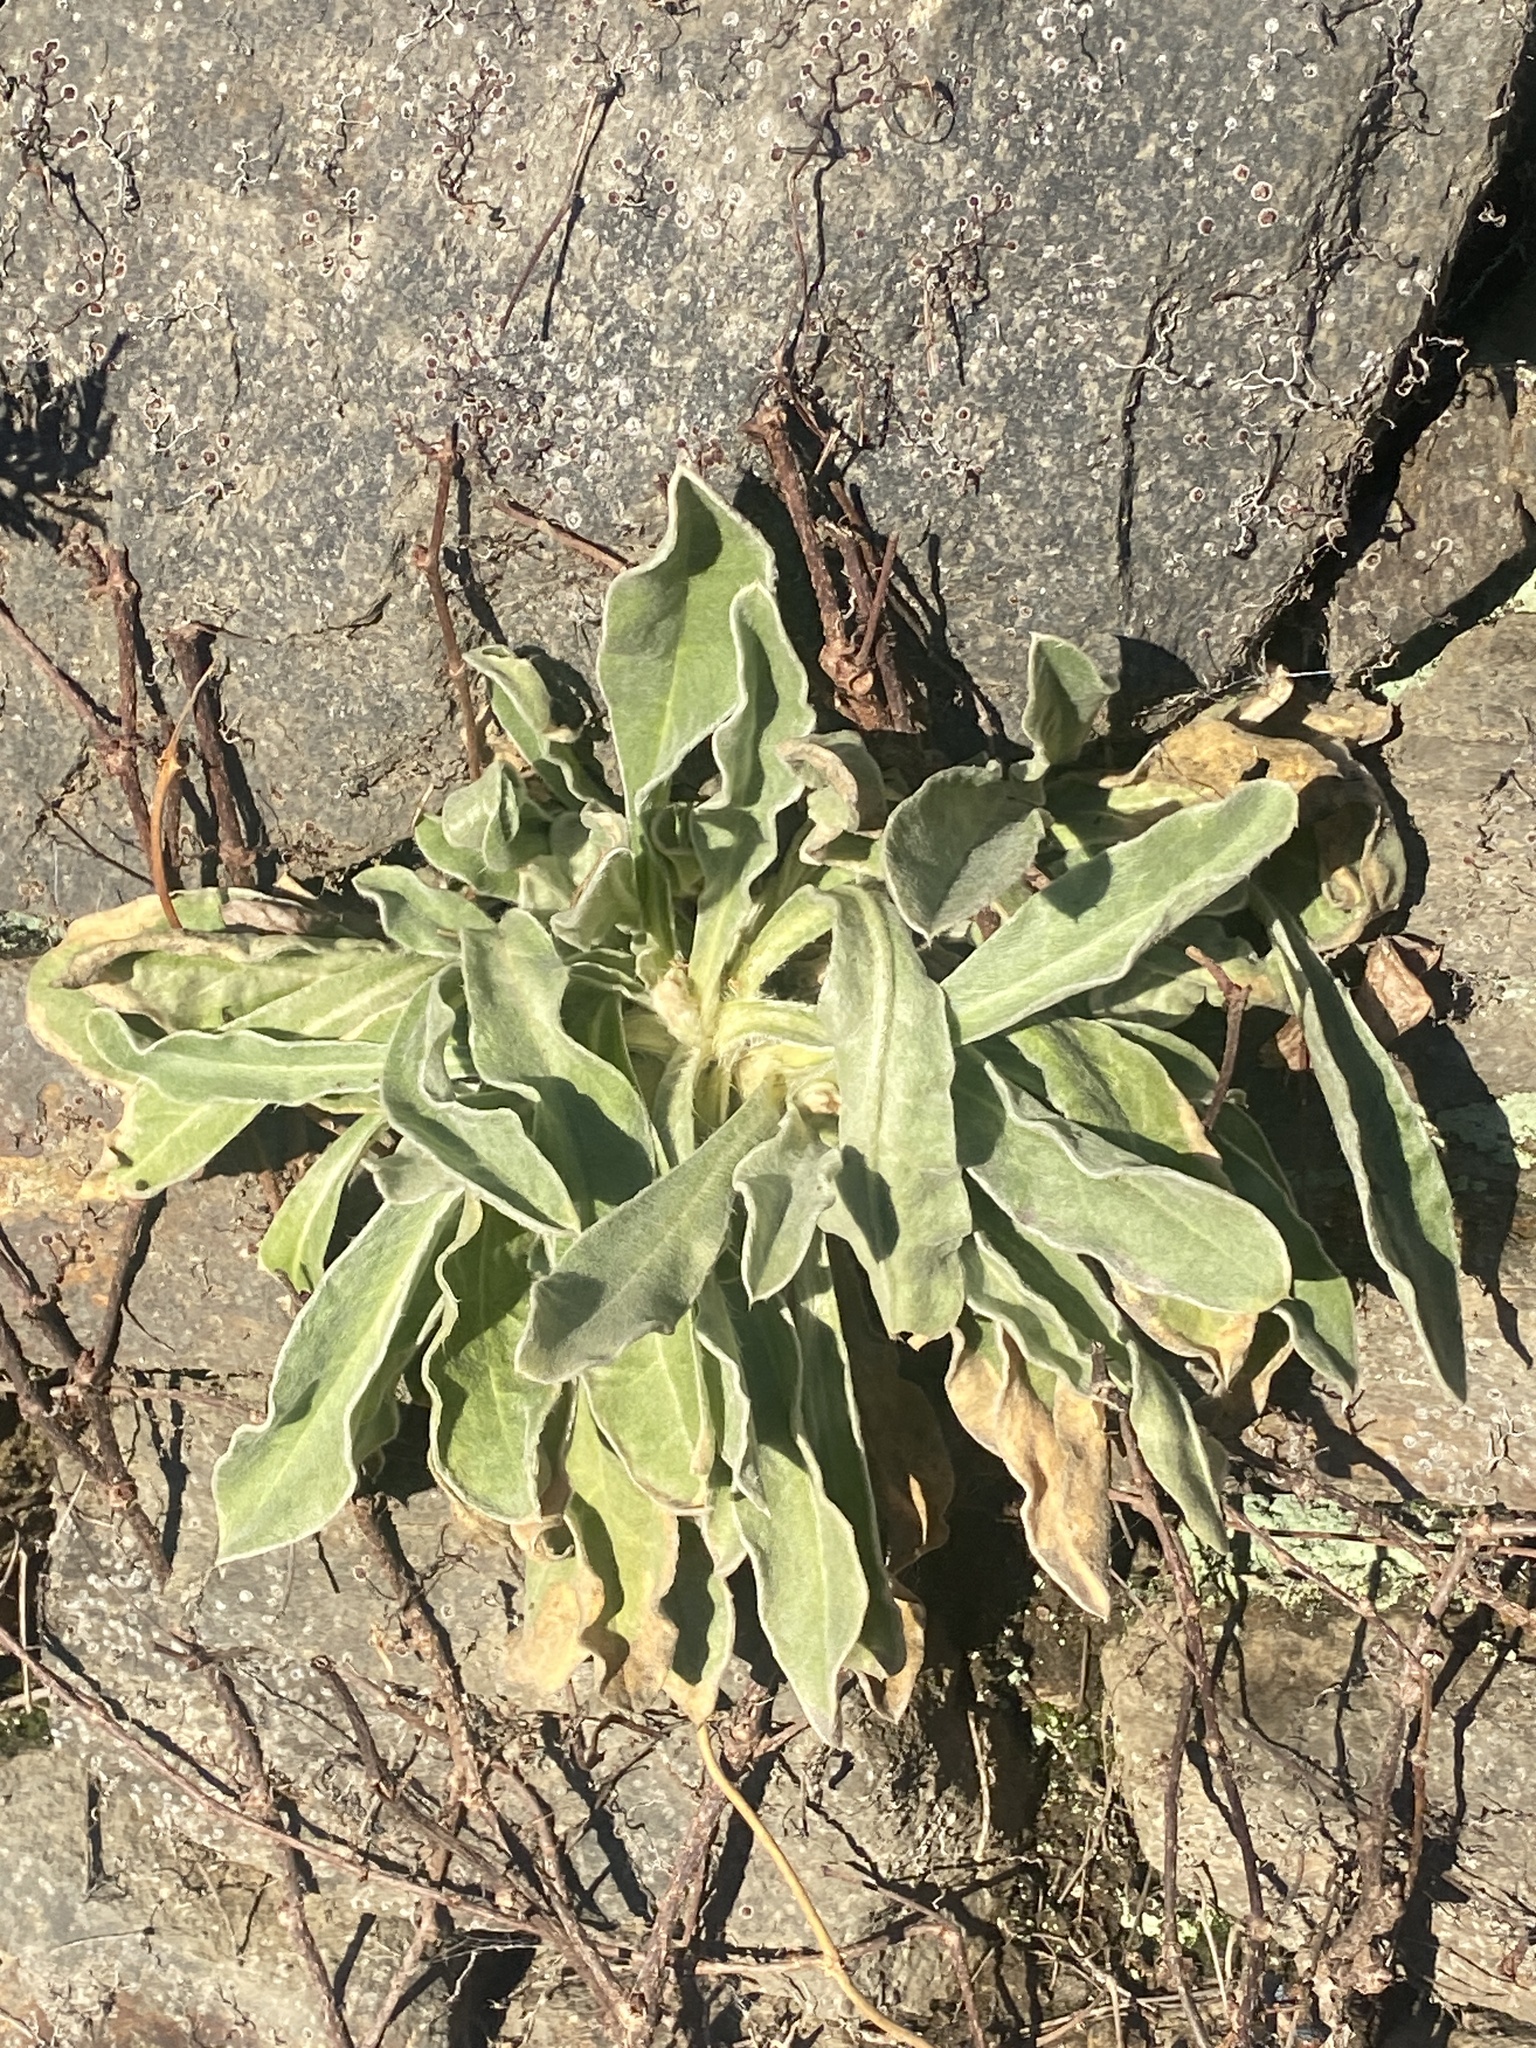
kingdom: Plantae
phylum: Tracheophyta
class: Magnoliopsida
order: Caryophyllales
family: Caryophyllaceae
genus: Silene
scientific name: Silene coronaria
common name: Rose campion
